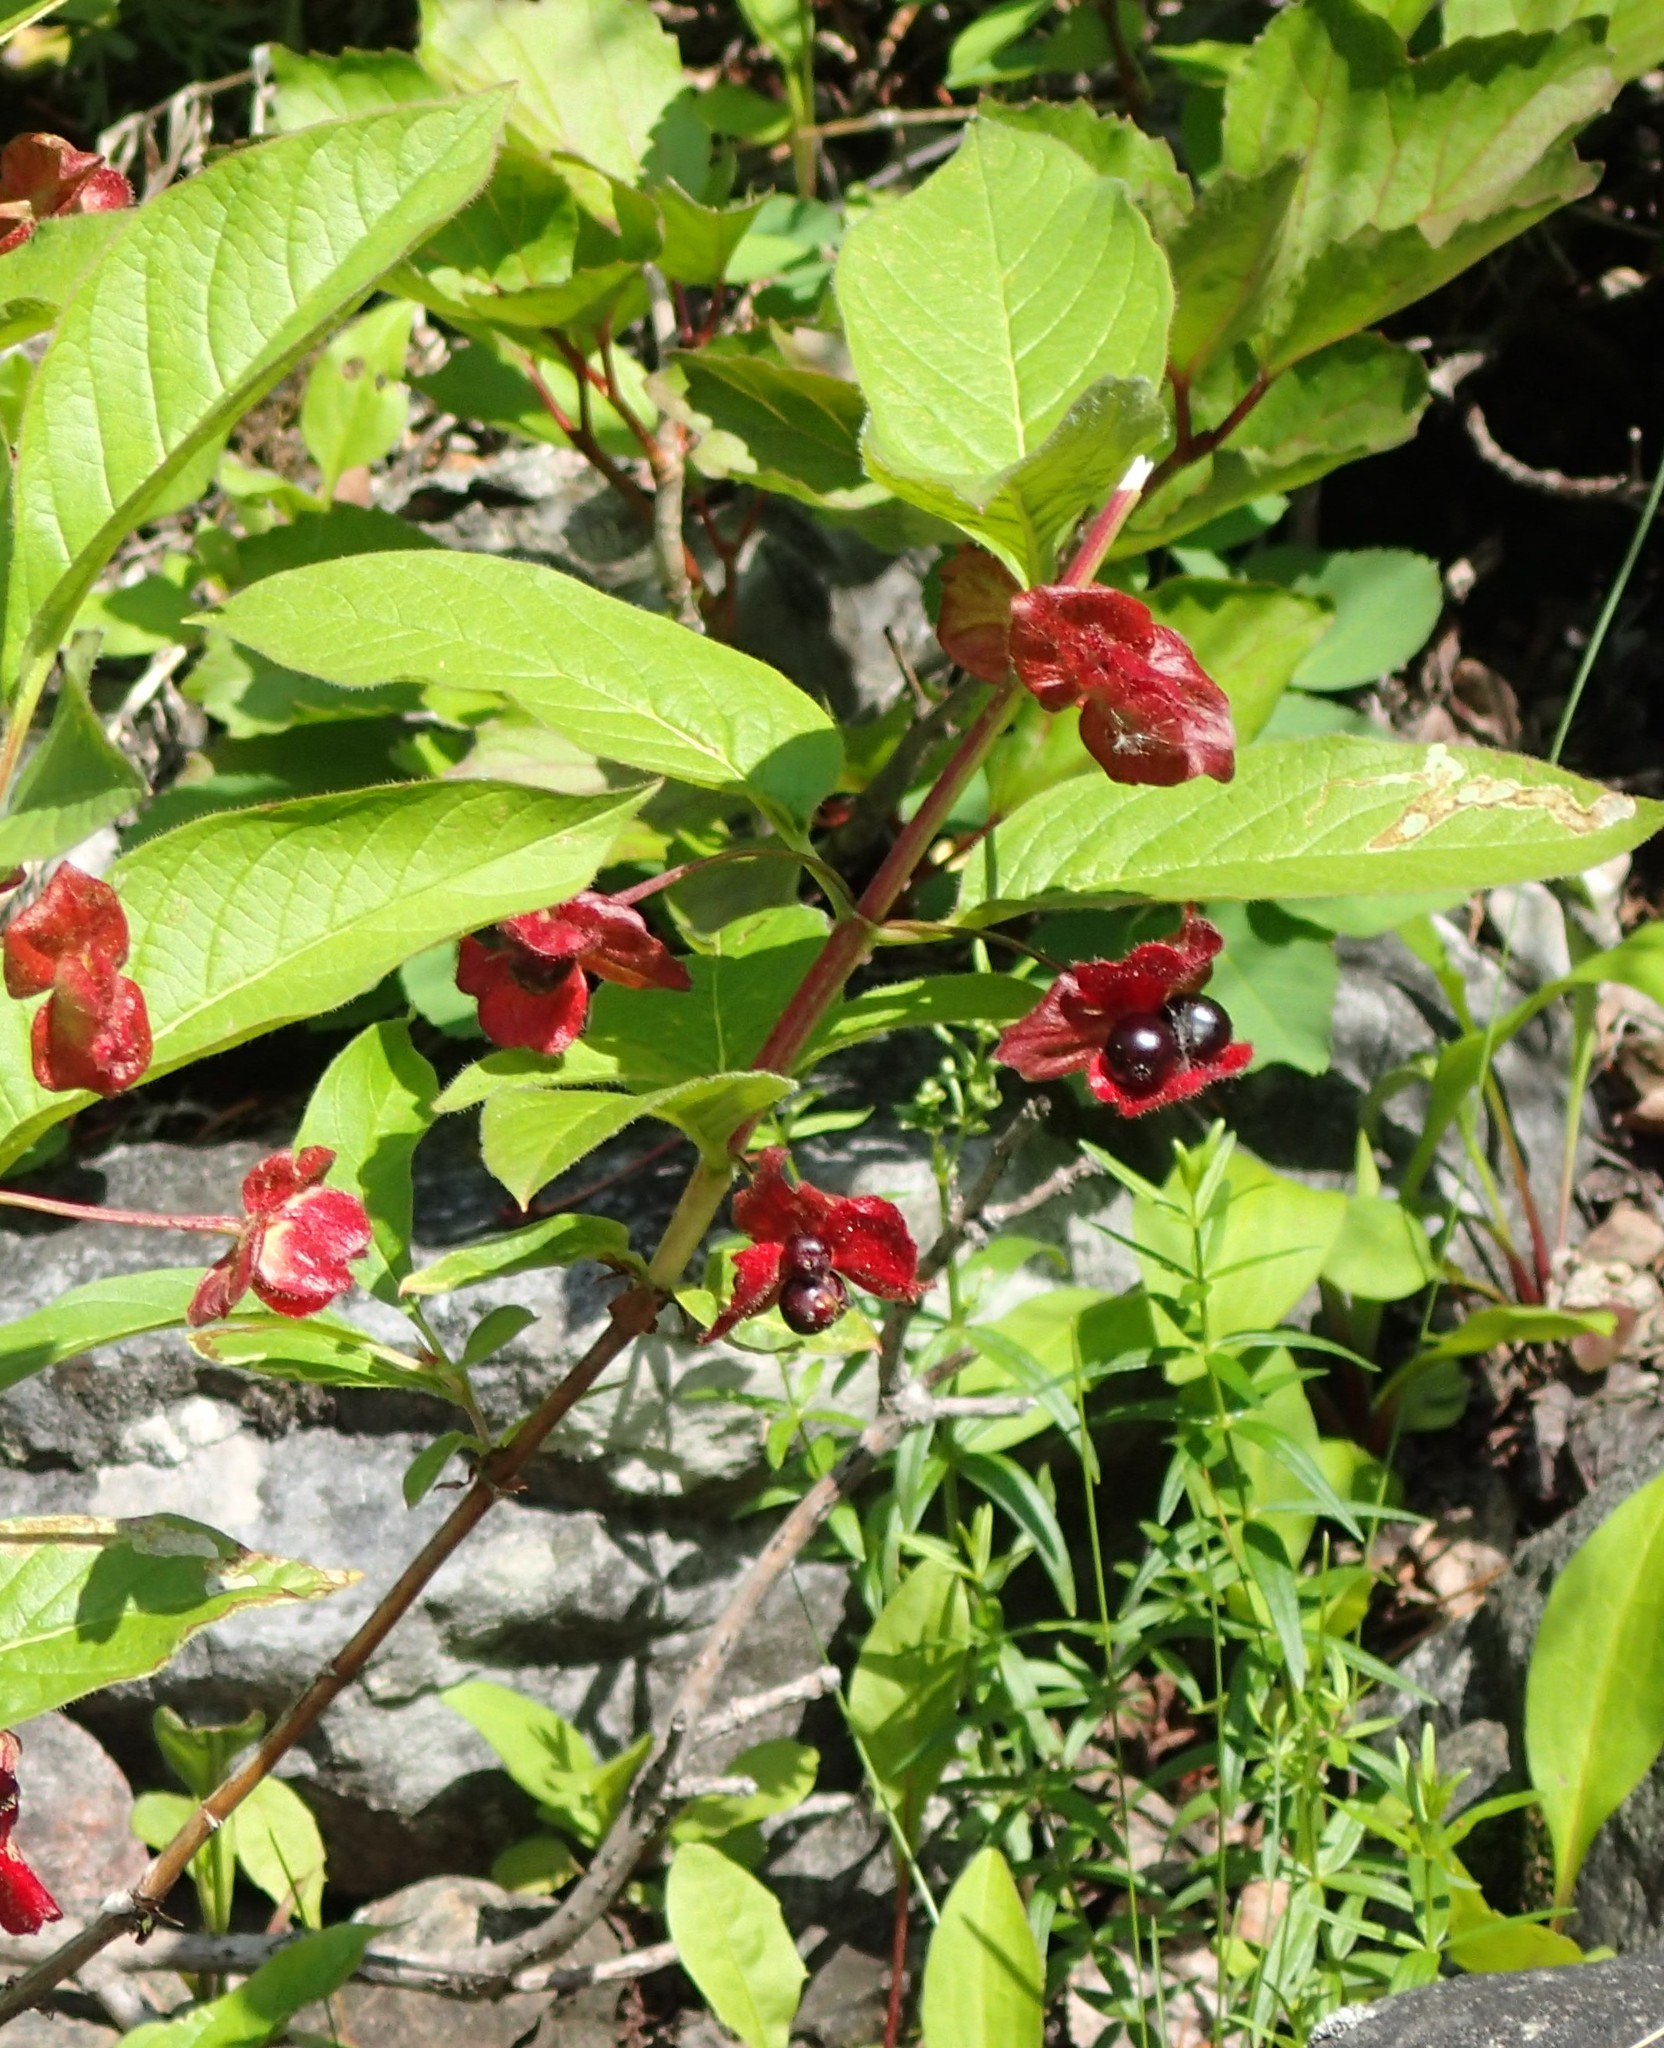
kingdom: Plantae
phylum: Tracheophyta
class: Magnoliopsida
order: Dipsacales
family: Caprifoliaceae
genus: Lonicera
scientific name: Lonicera involucrata
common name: Californian honeysuckle
